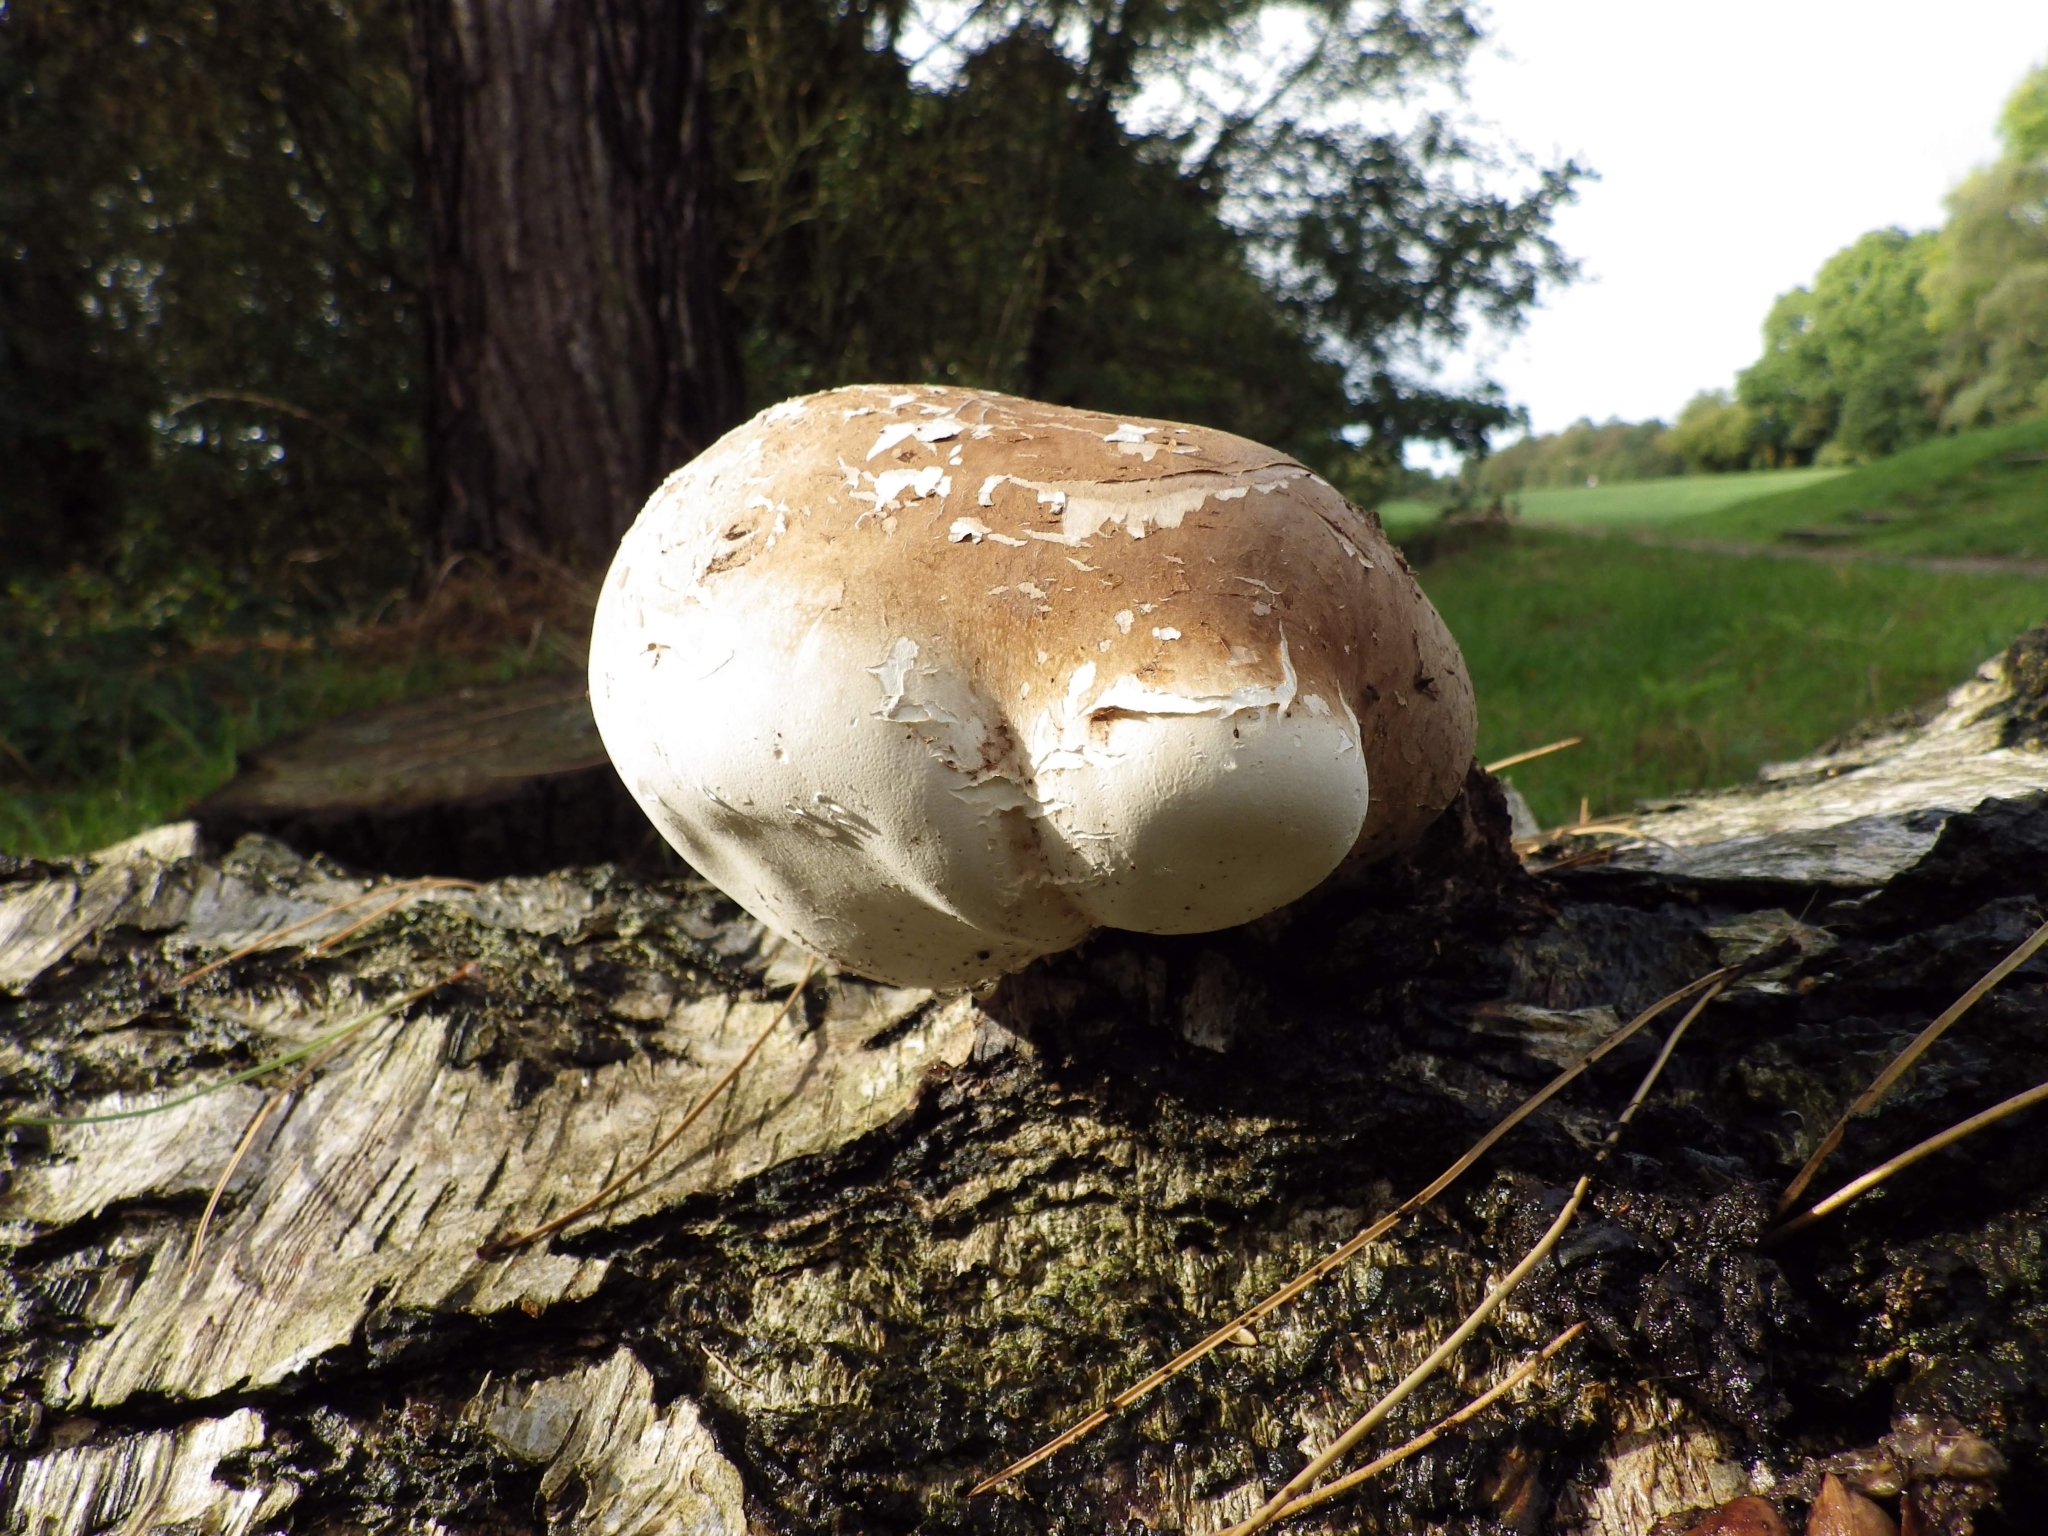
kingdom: Fungi
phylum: Basidiomycota
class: Agaricomycetes
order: Polyporales
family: Fomitopsidaceae
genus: Fomitopsis
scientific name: Fomitopsis betulina
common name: Birch polypore
